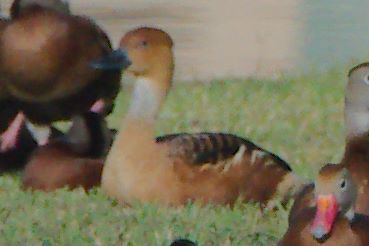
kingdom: Animalia
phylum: Chordata
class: Aves
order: Anseriformes
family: Anatidae
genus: Dendrocygna
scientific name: Dendrocygna bicolor
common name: Fulvous whistling duck
